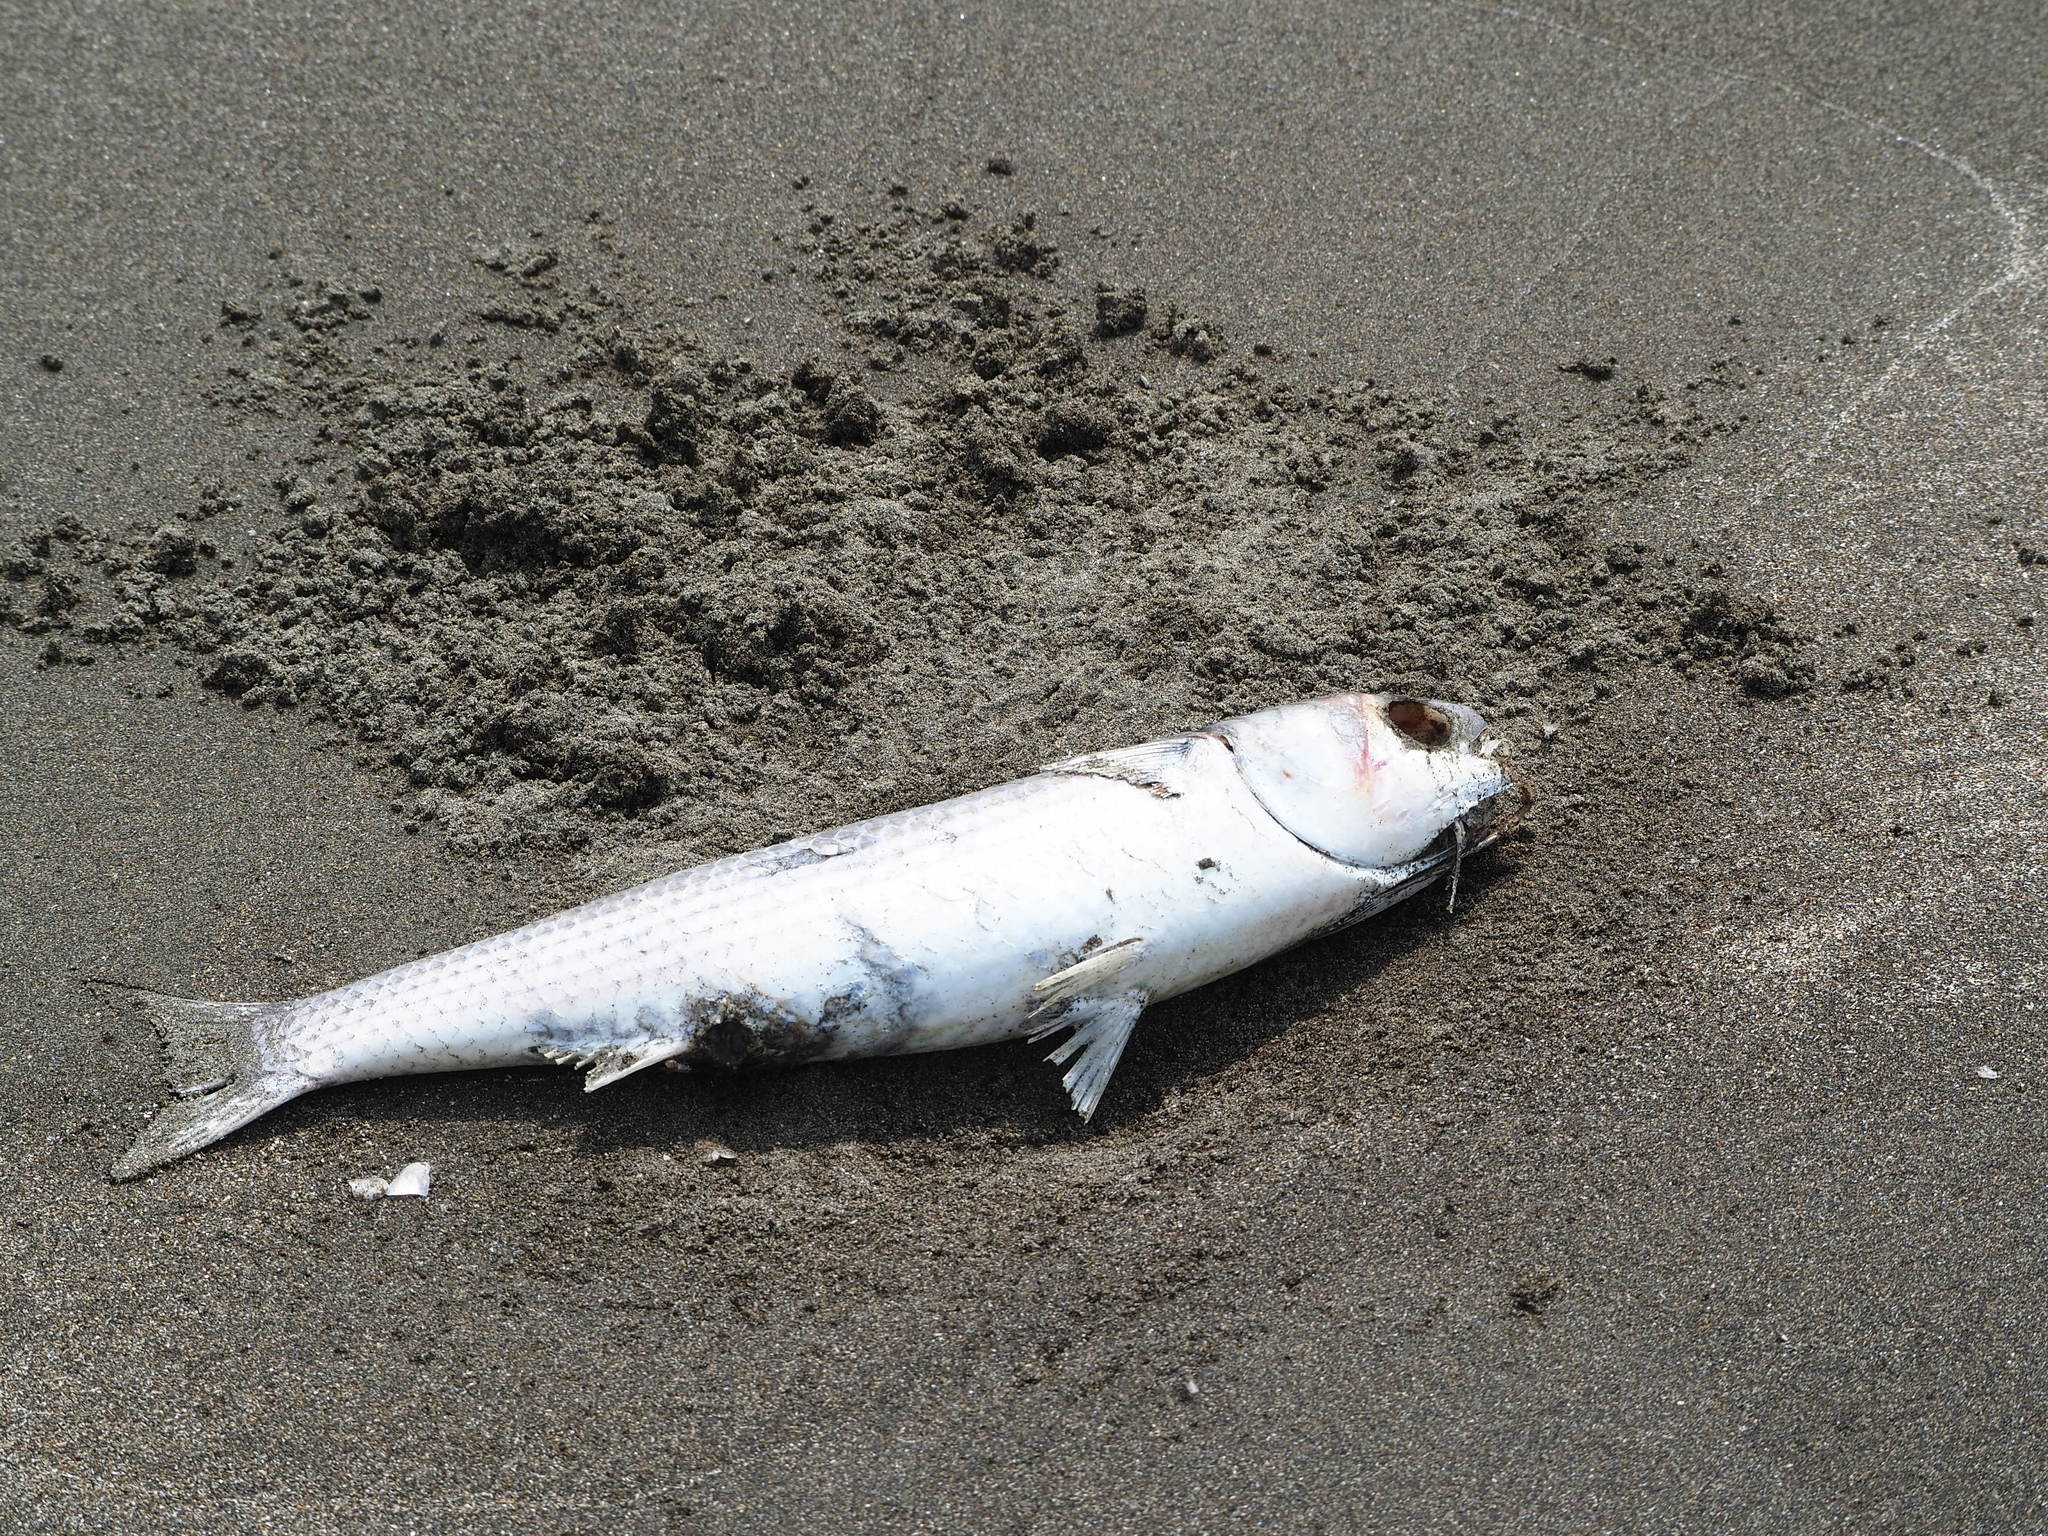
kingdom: Animalia
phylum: Chordata
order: Mugiliformes
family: Mugilidae
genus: Mugil
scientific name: Mugil cephalus
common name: Grey mullet
